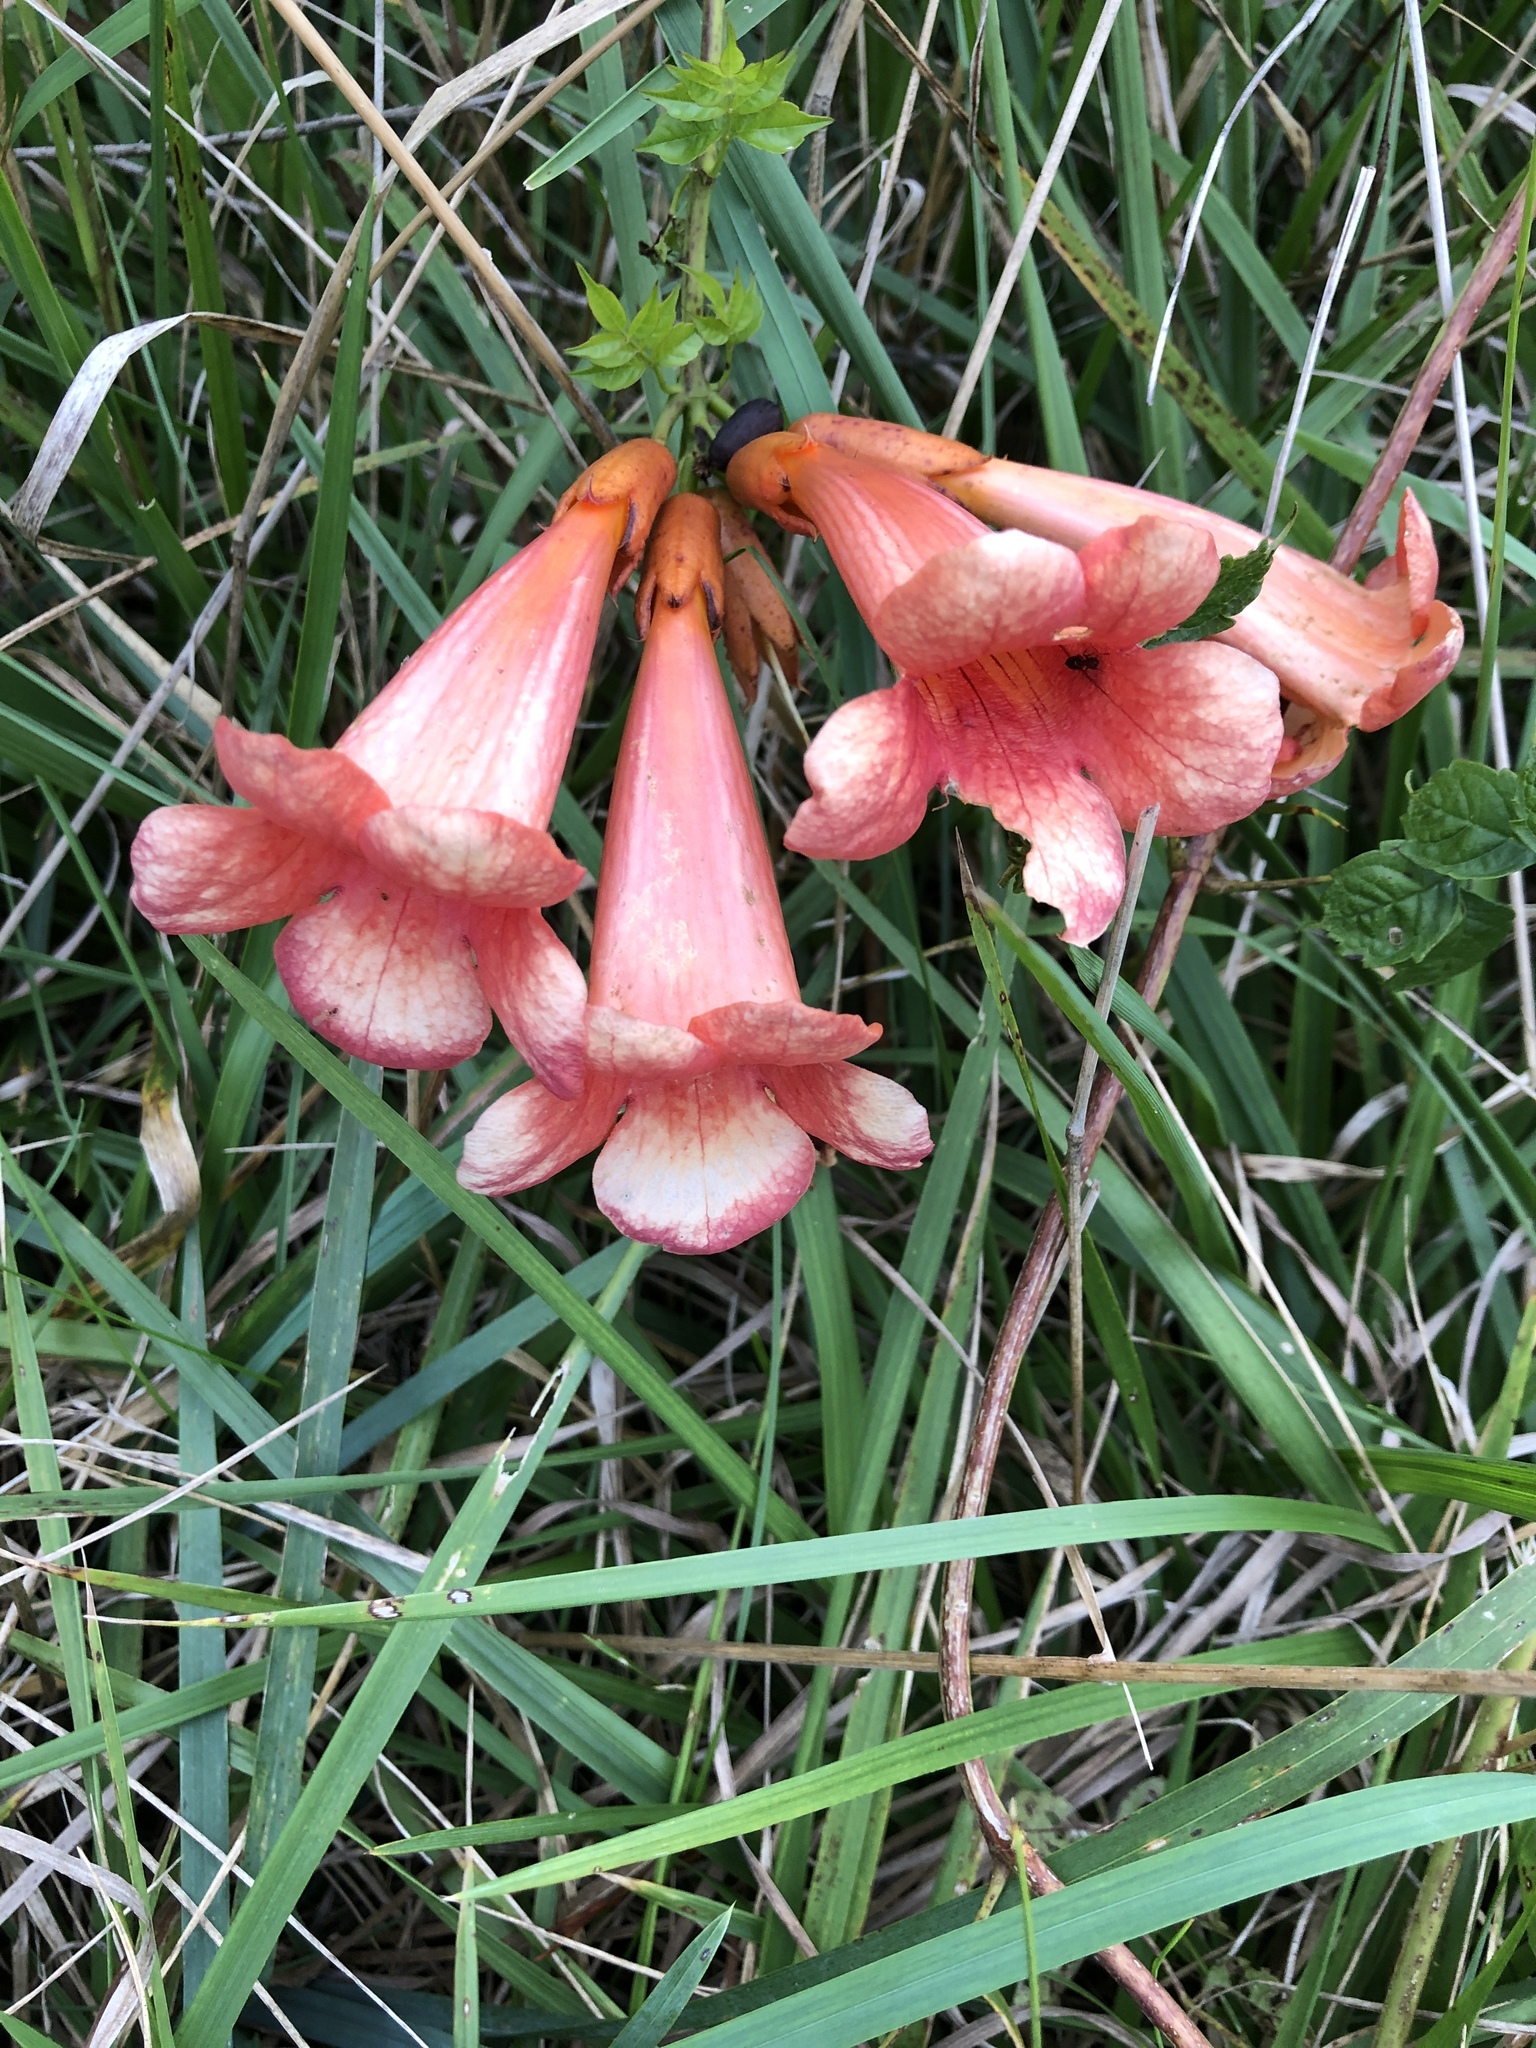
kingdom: Plantae
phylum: Tracheophyta
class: Magnoliopsida
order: Lamiales
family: Bignoniaceae
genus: Campsis
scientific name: Campsis radicans
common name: Trumpet-creeper
